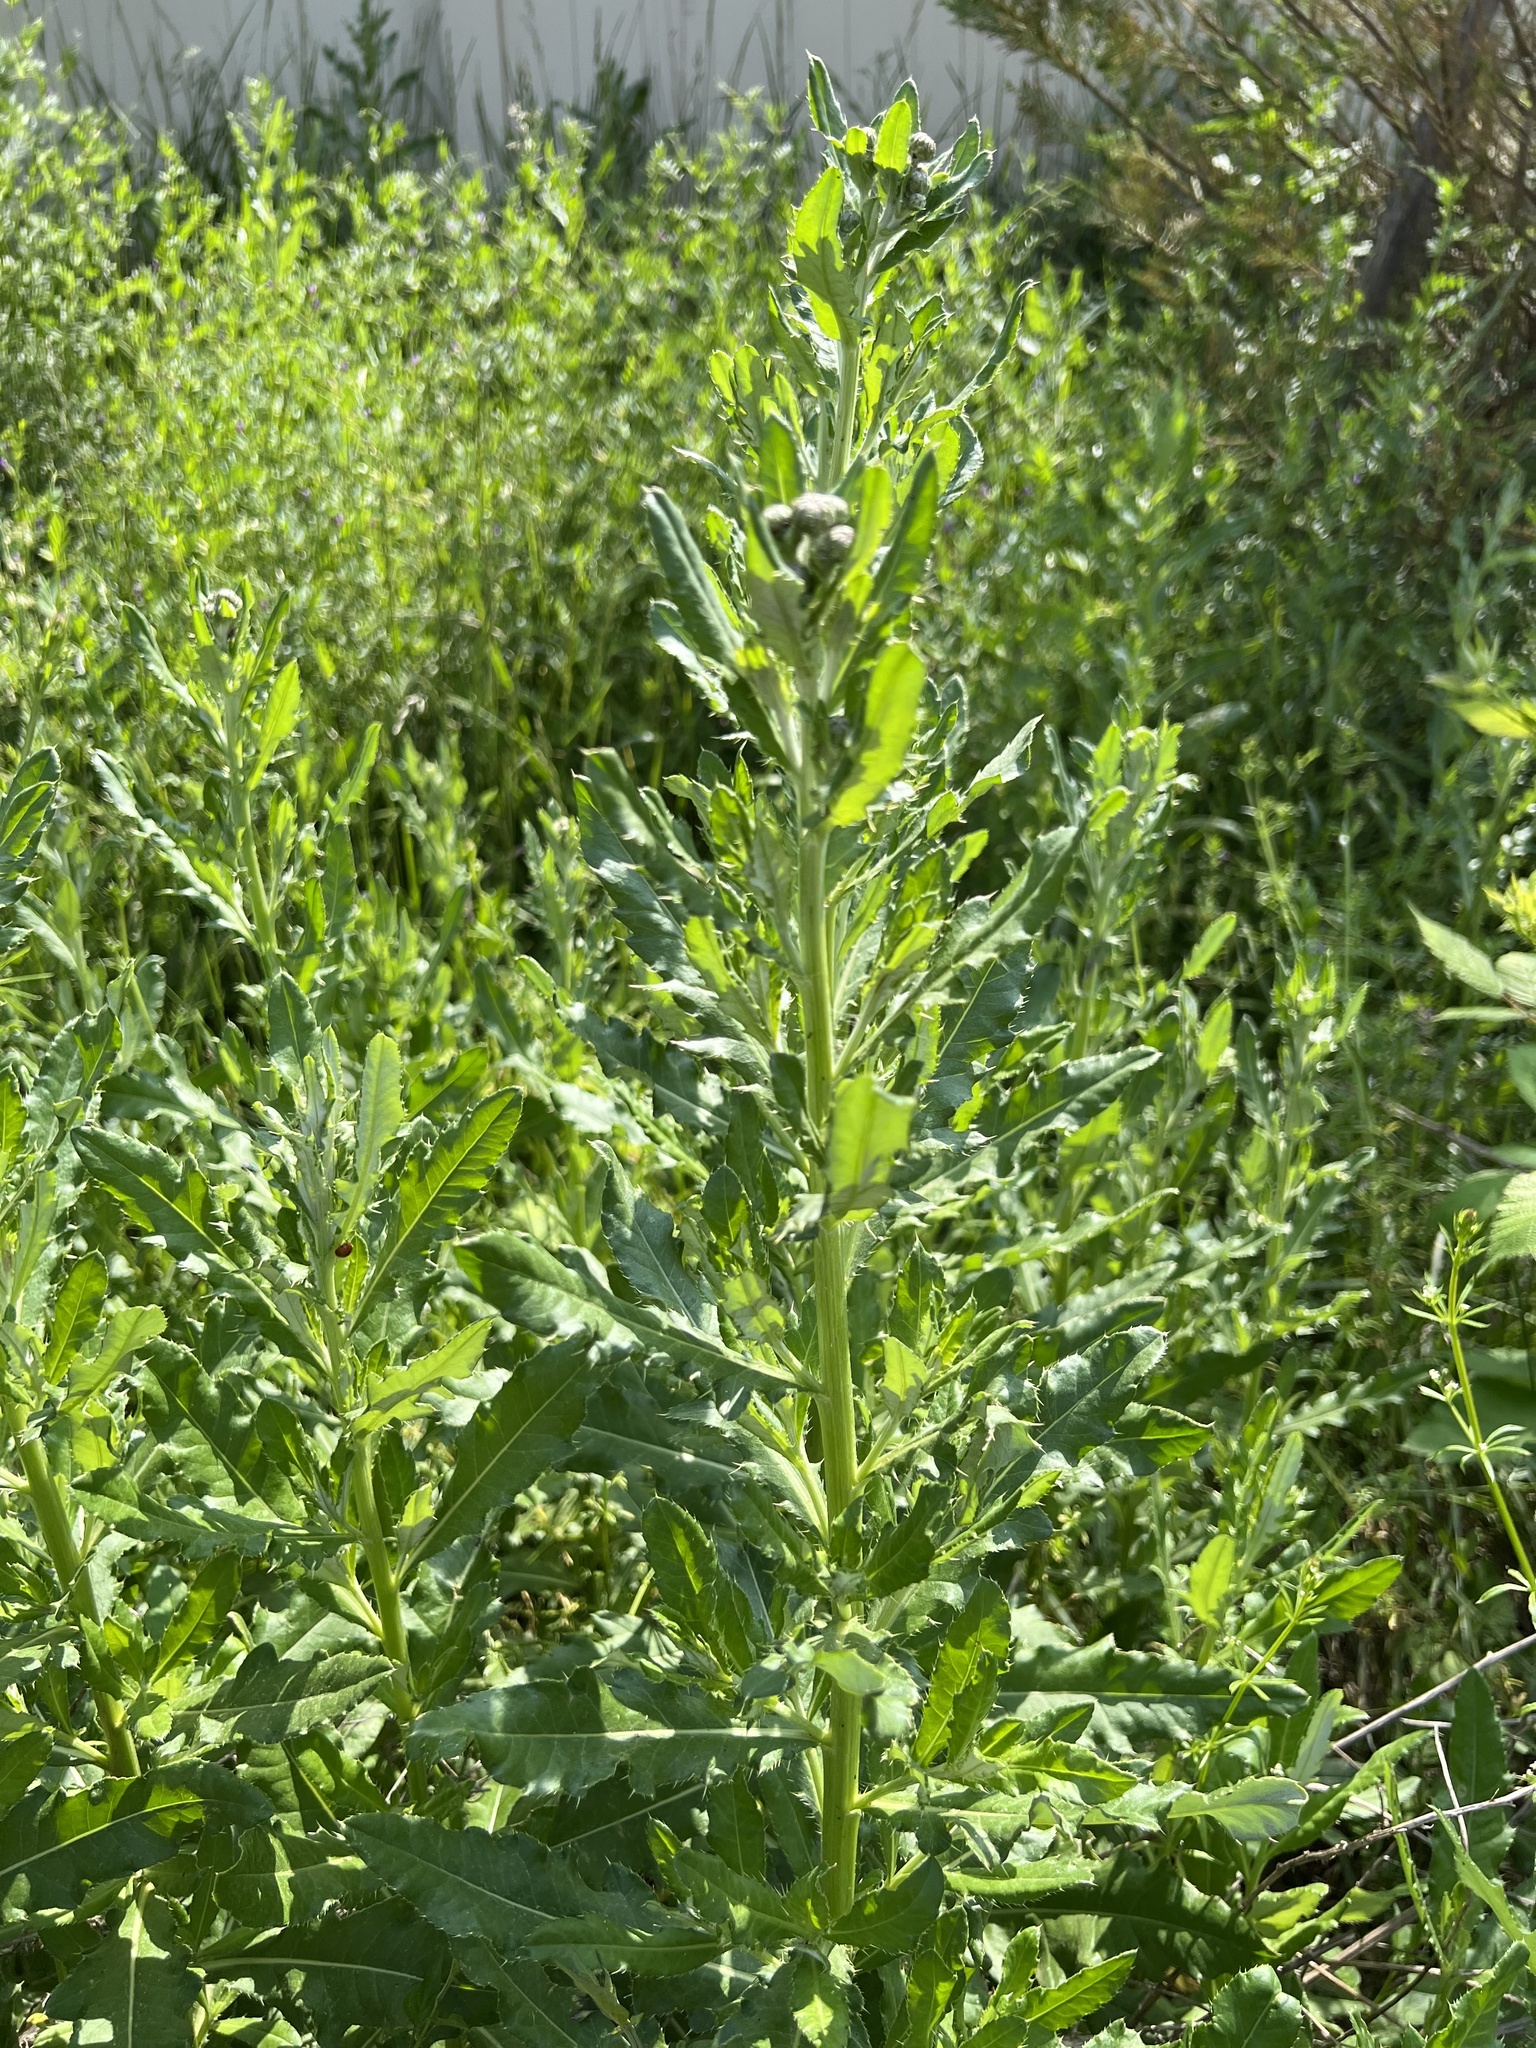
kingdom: Plantae
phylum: Tracheophyta
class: Magnoliopsida
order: Asterales
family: Asteraceae
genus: Cirsium
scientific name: Cirsium arvense
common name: Creeping thistle
